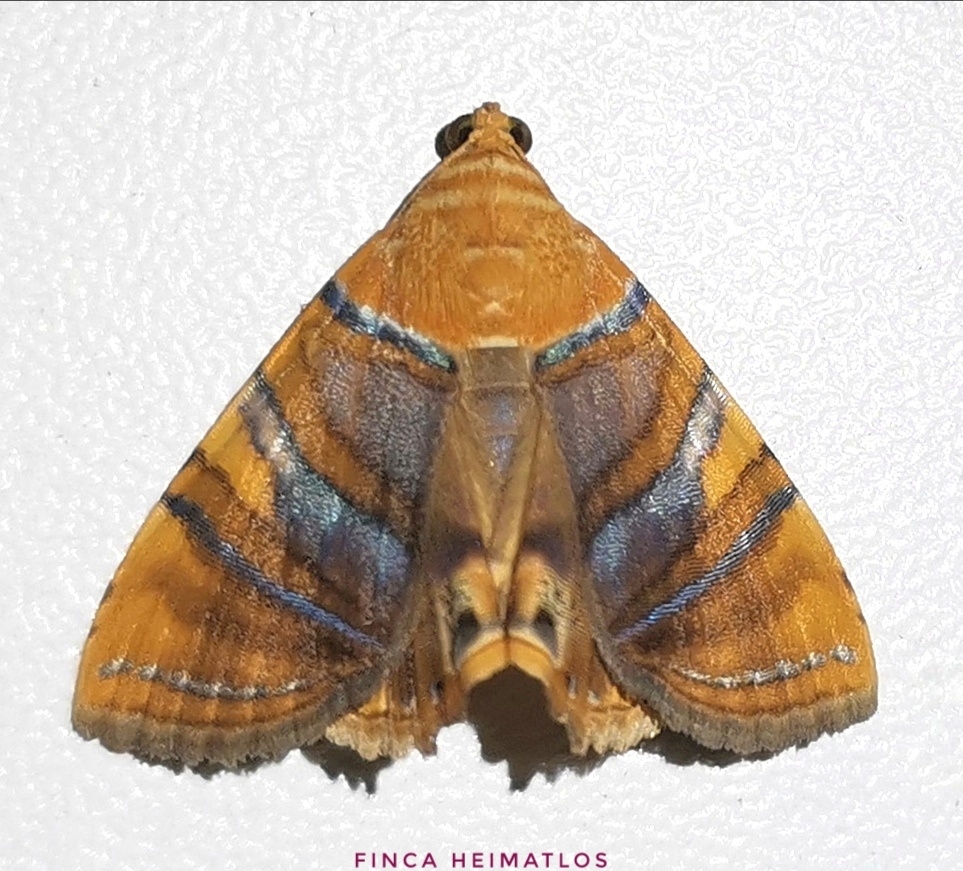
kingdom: Animalia
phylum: Arthropoda
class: Insecta
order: Lepidoptera
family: Erebidae
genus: Eulepidotis
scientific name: Eulepidotis stella
